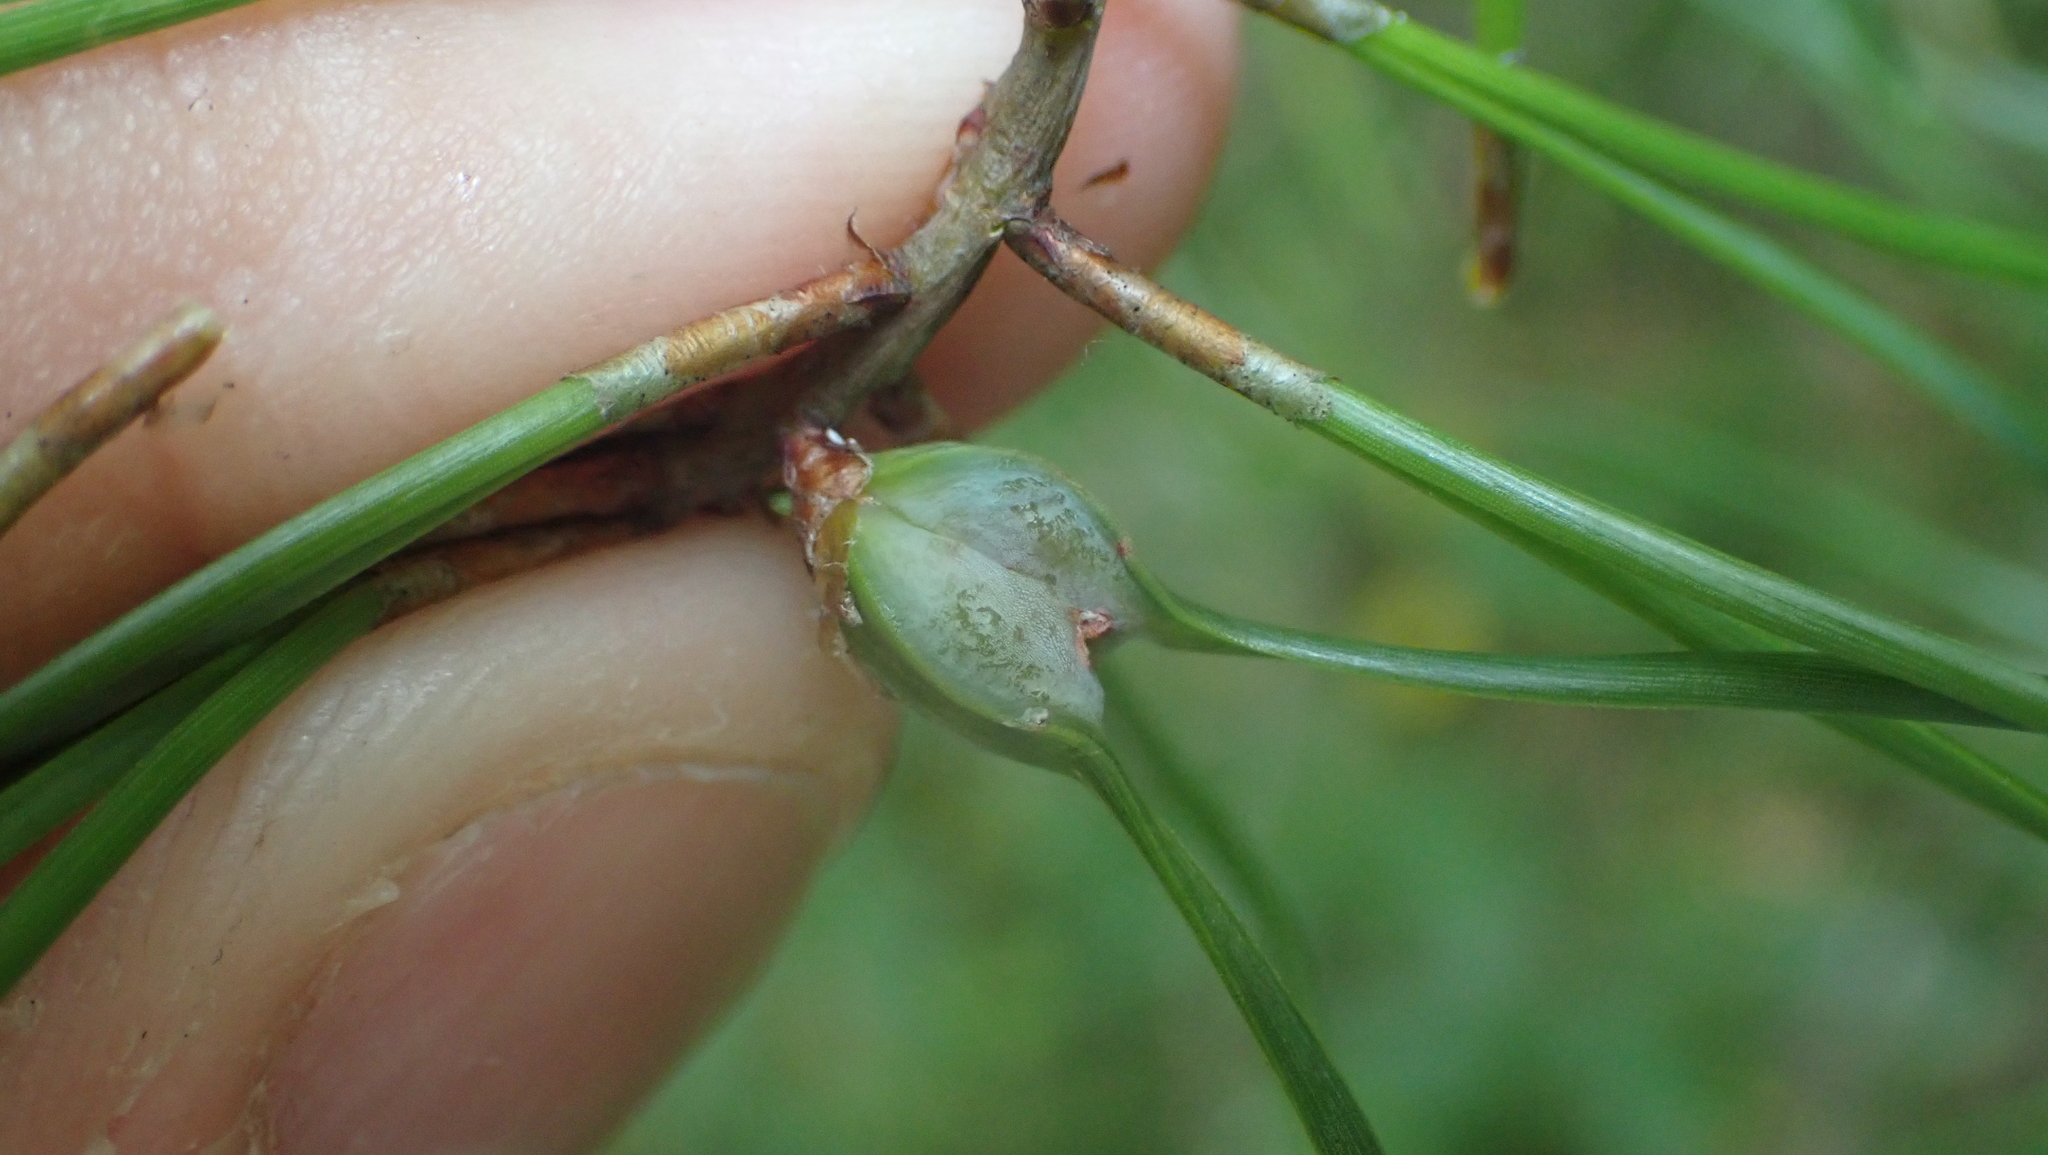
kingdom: Animalia
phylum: Arthropoda
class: Insecta
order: Diptera
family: Cecidomyiidae
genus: Thecodiplosis
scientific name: Thecodiplosis brachynteroides
